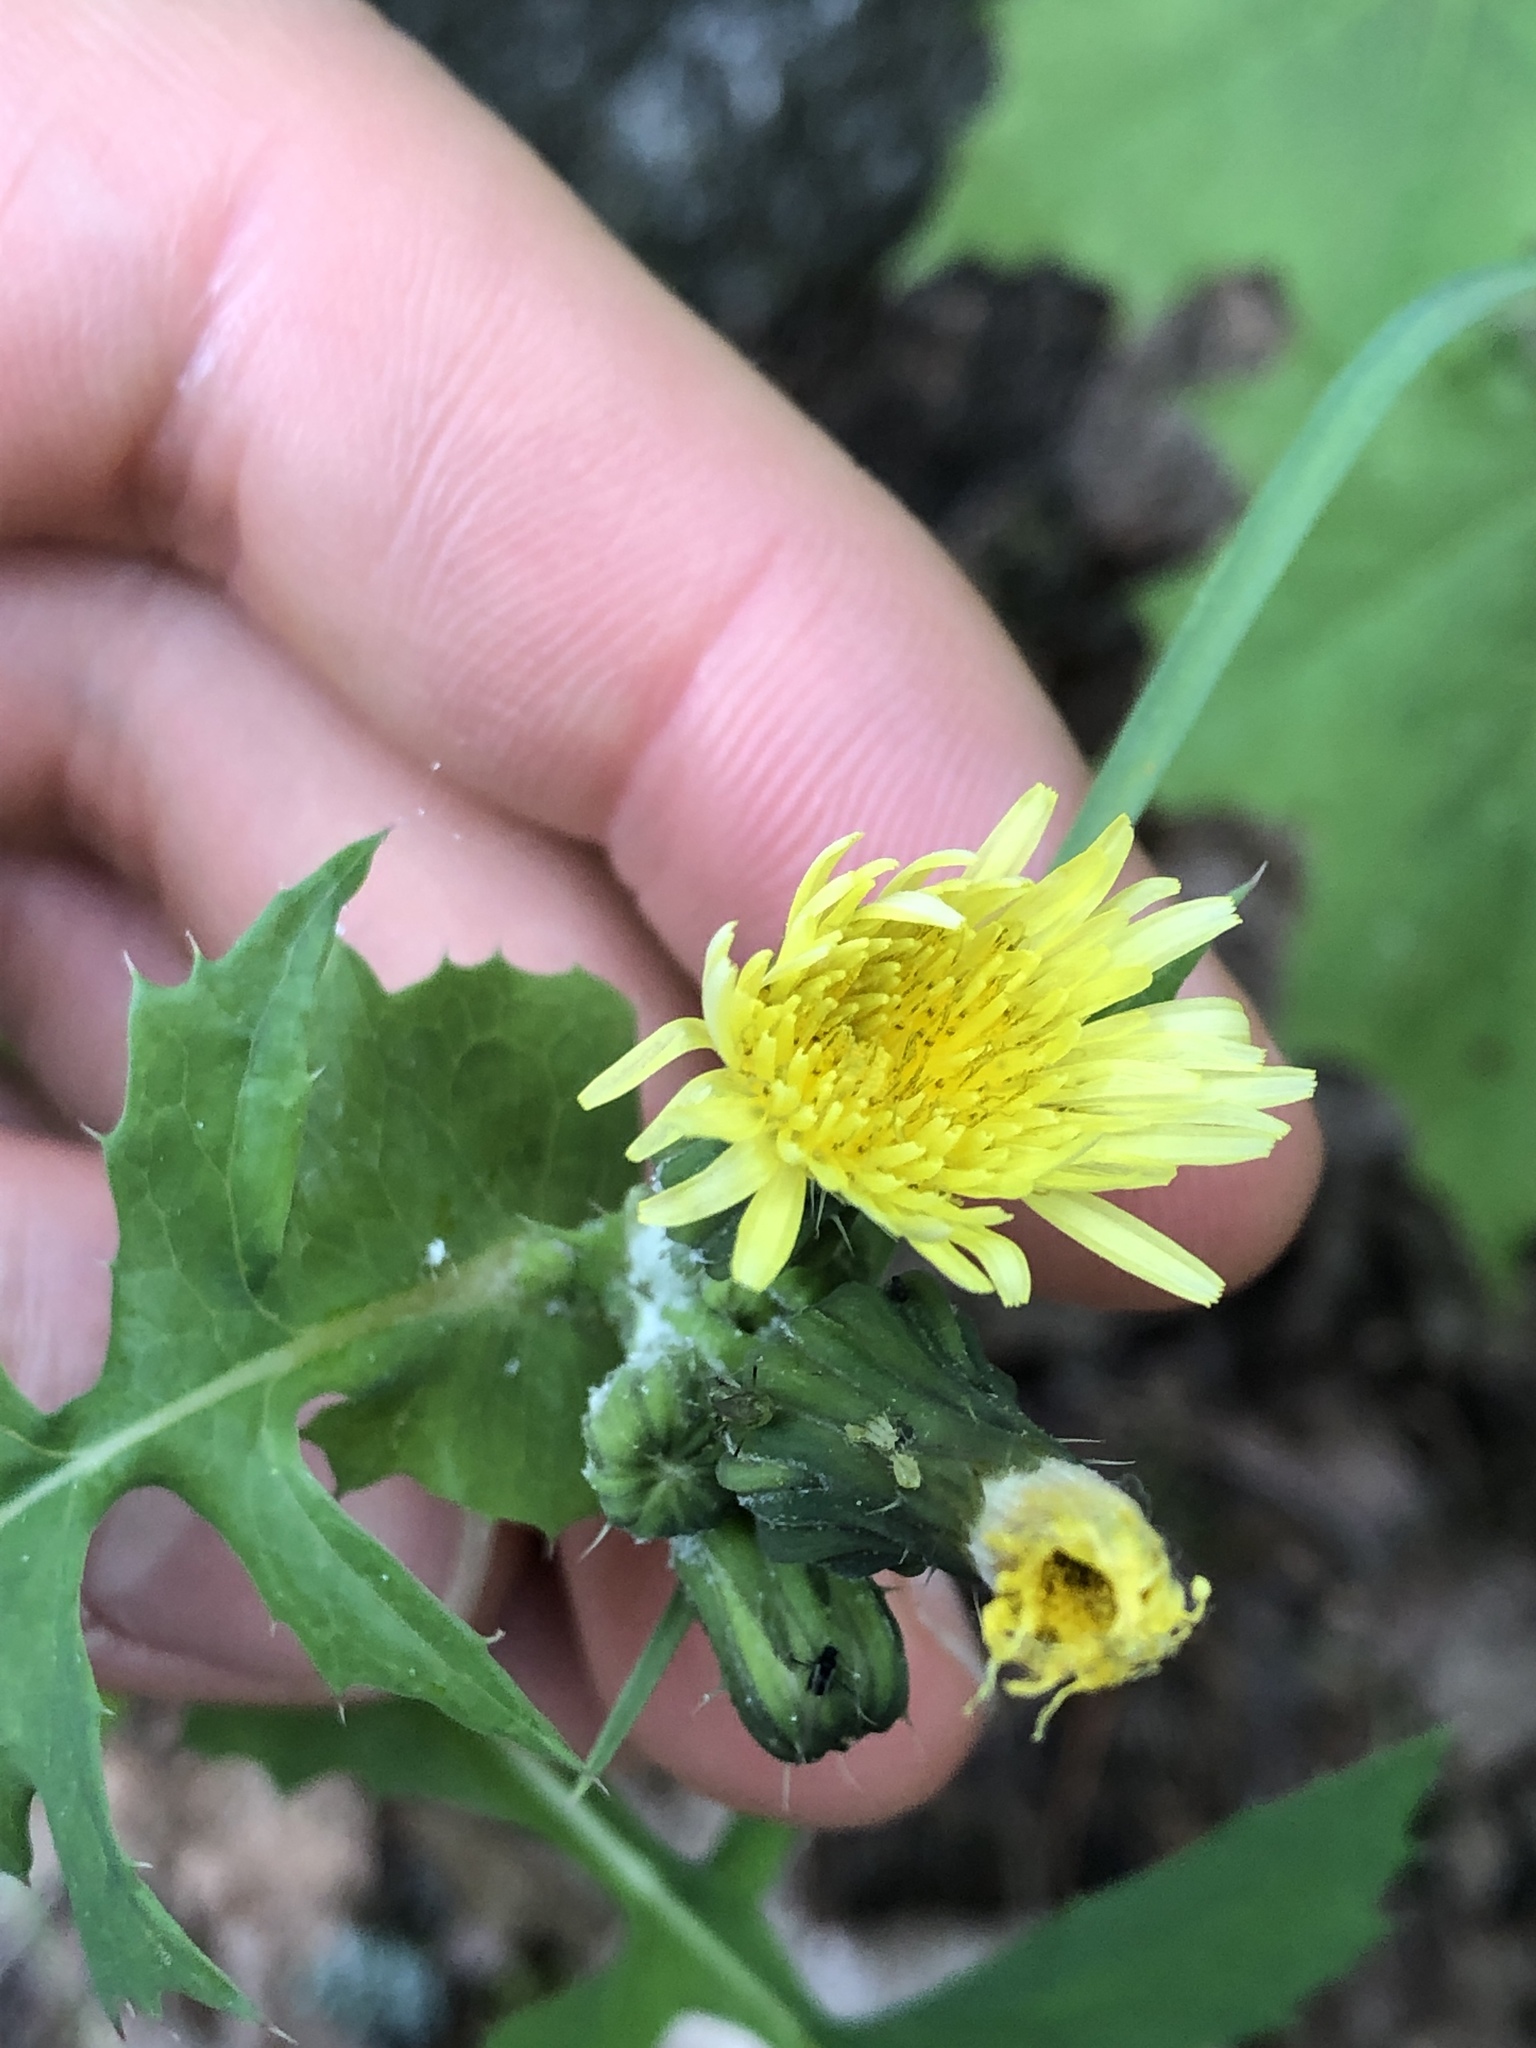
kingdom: Plantae
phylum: Tracheophyta
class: Magnoliopsida
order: Asterales
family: Asteraceae
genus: Sonchus
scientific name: Sonchus oleraceus
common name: Common sowthistle
